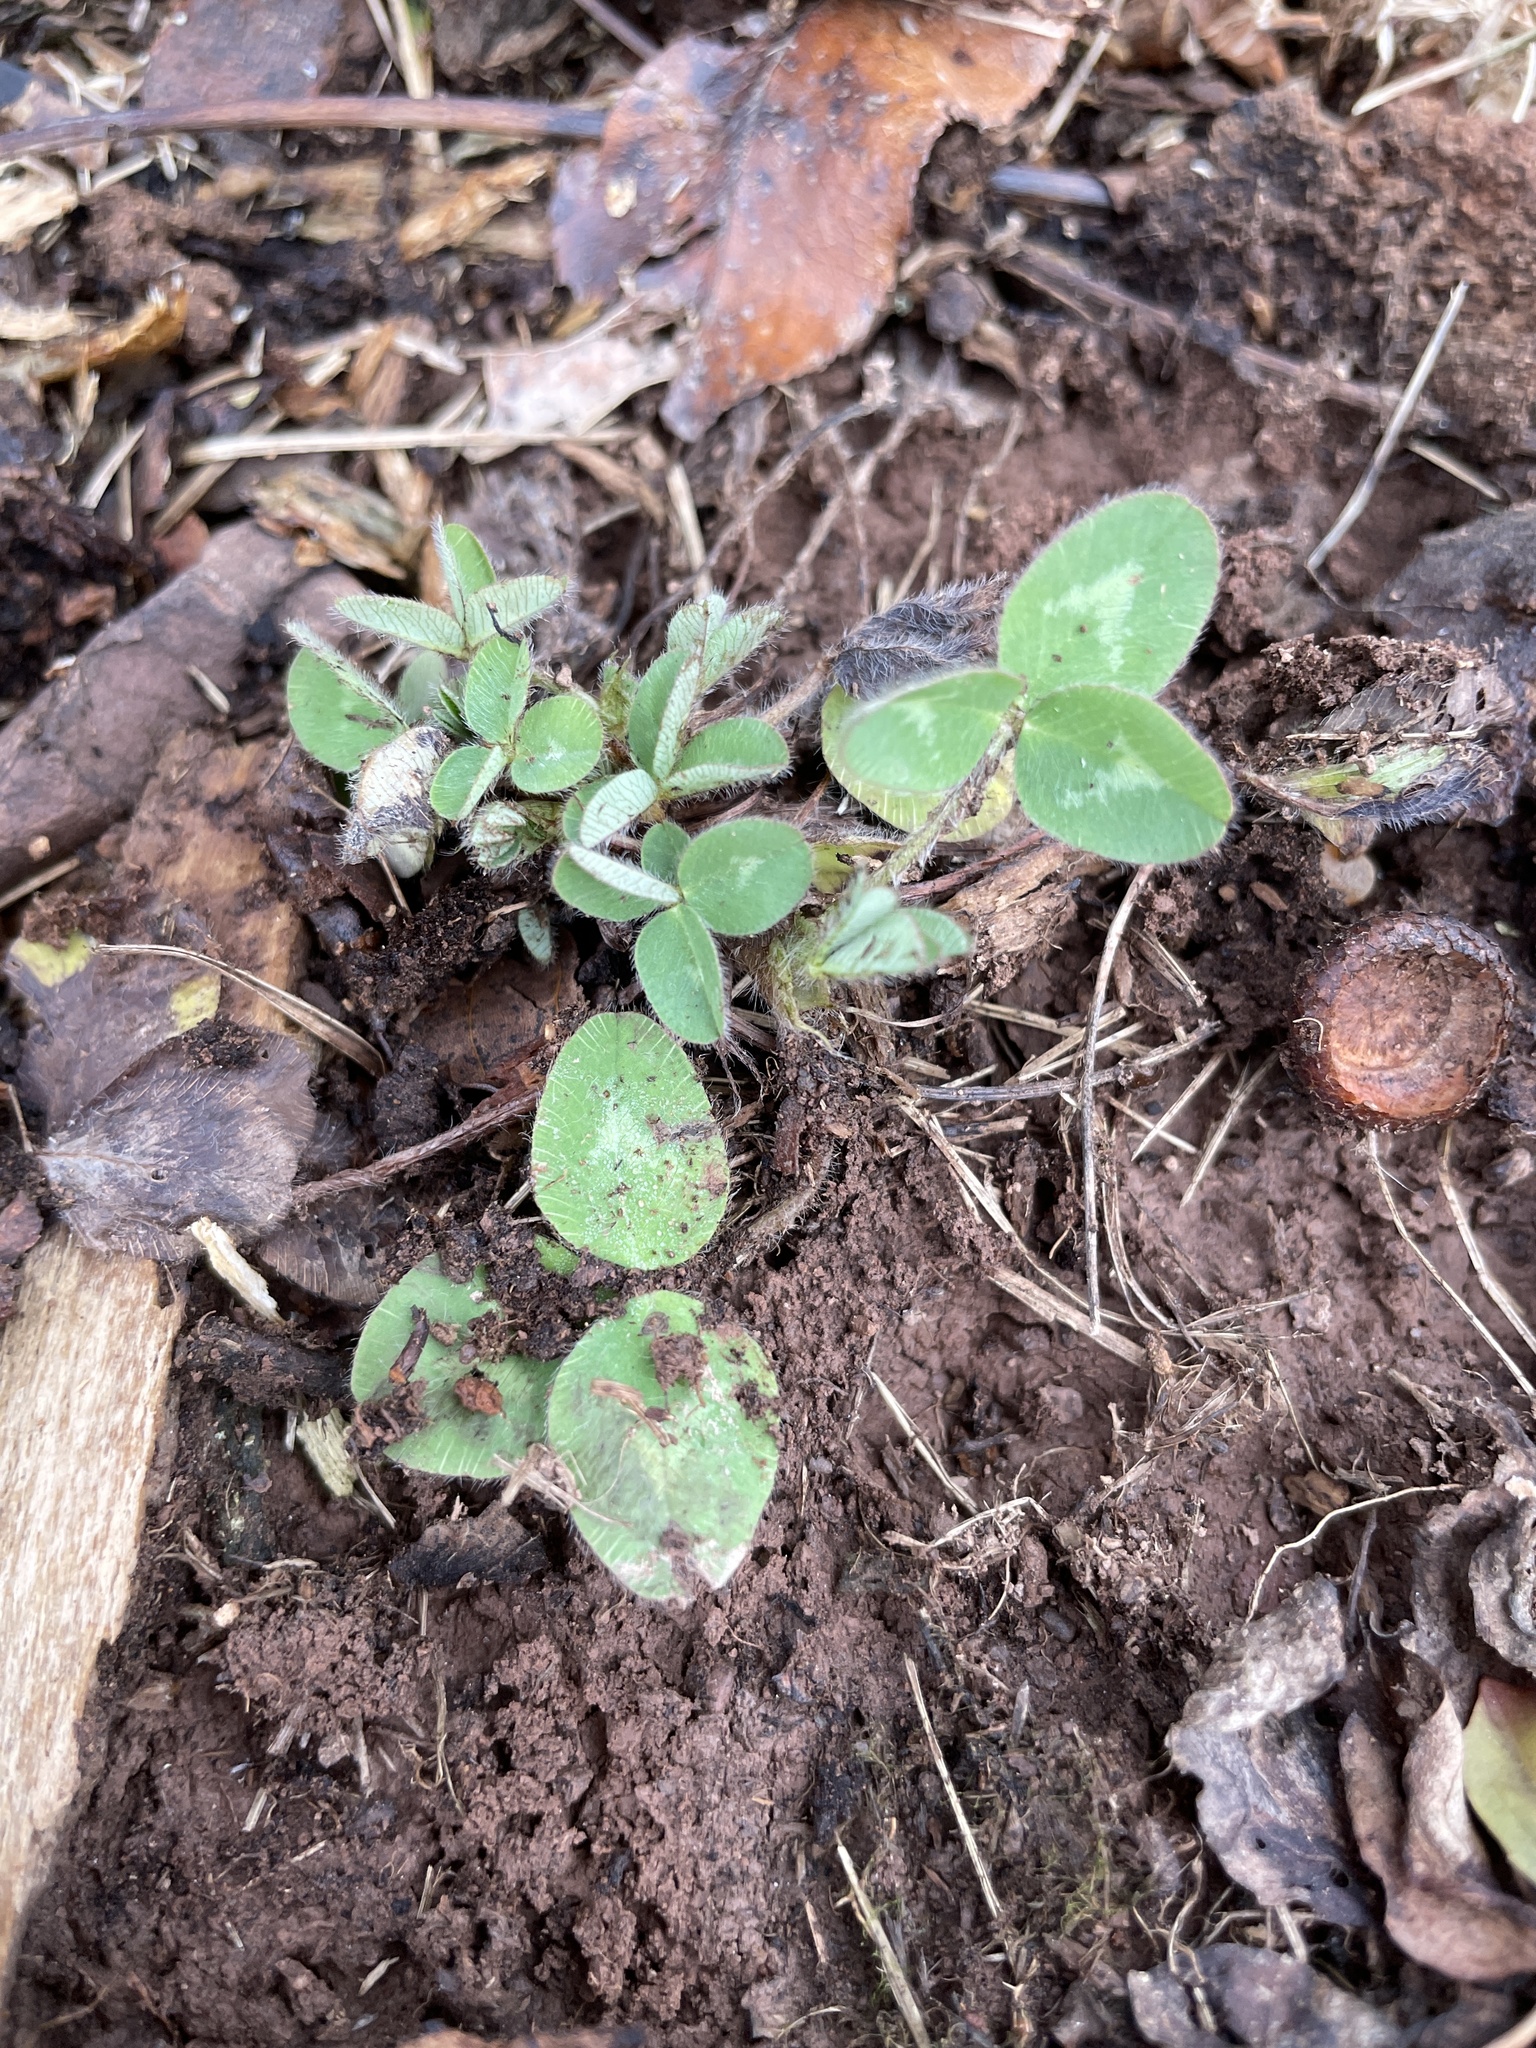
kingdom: Plantae
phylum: Tracheophyta
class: Magnoliopsida
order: Fabales
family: Fabaceae
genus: Trifolium
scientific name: Trifolium pratense
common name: Red clover
